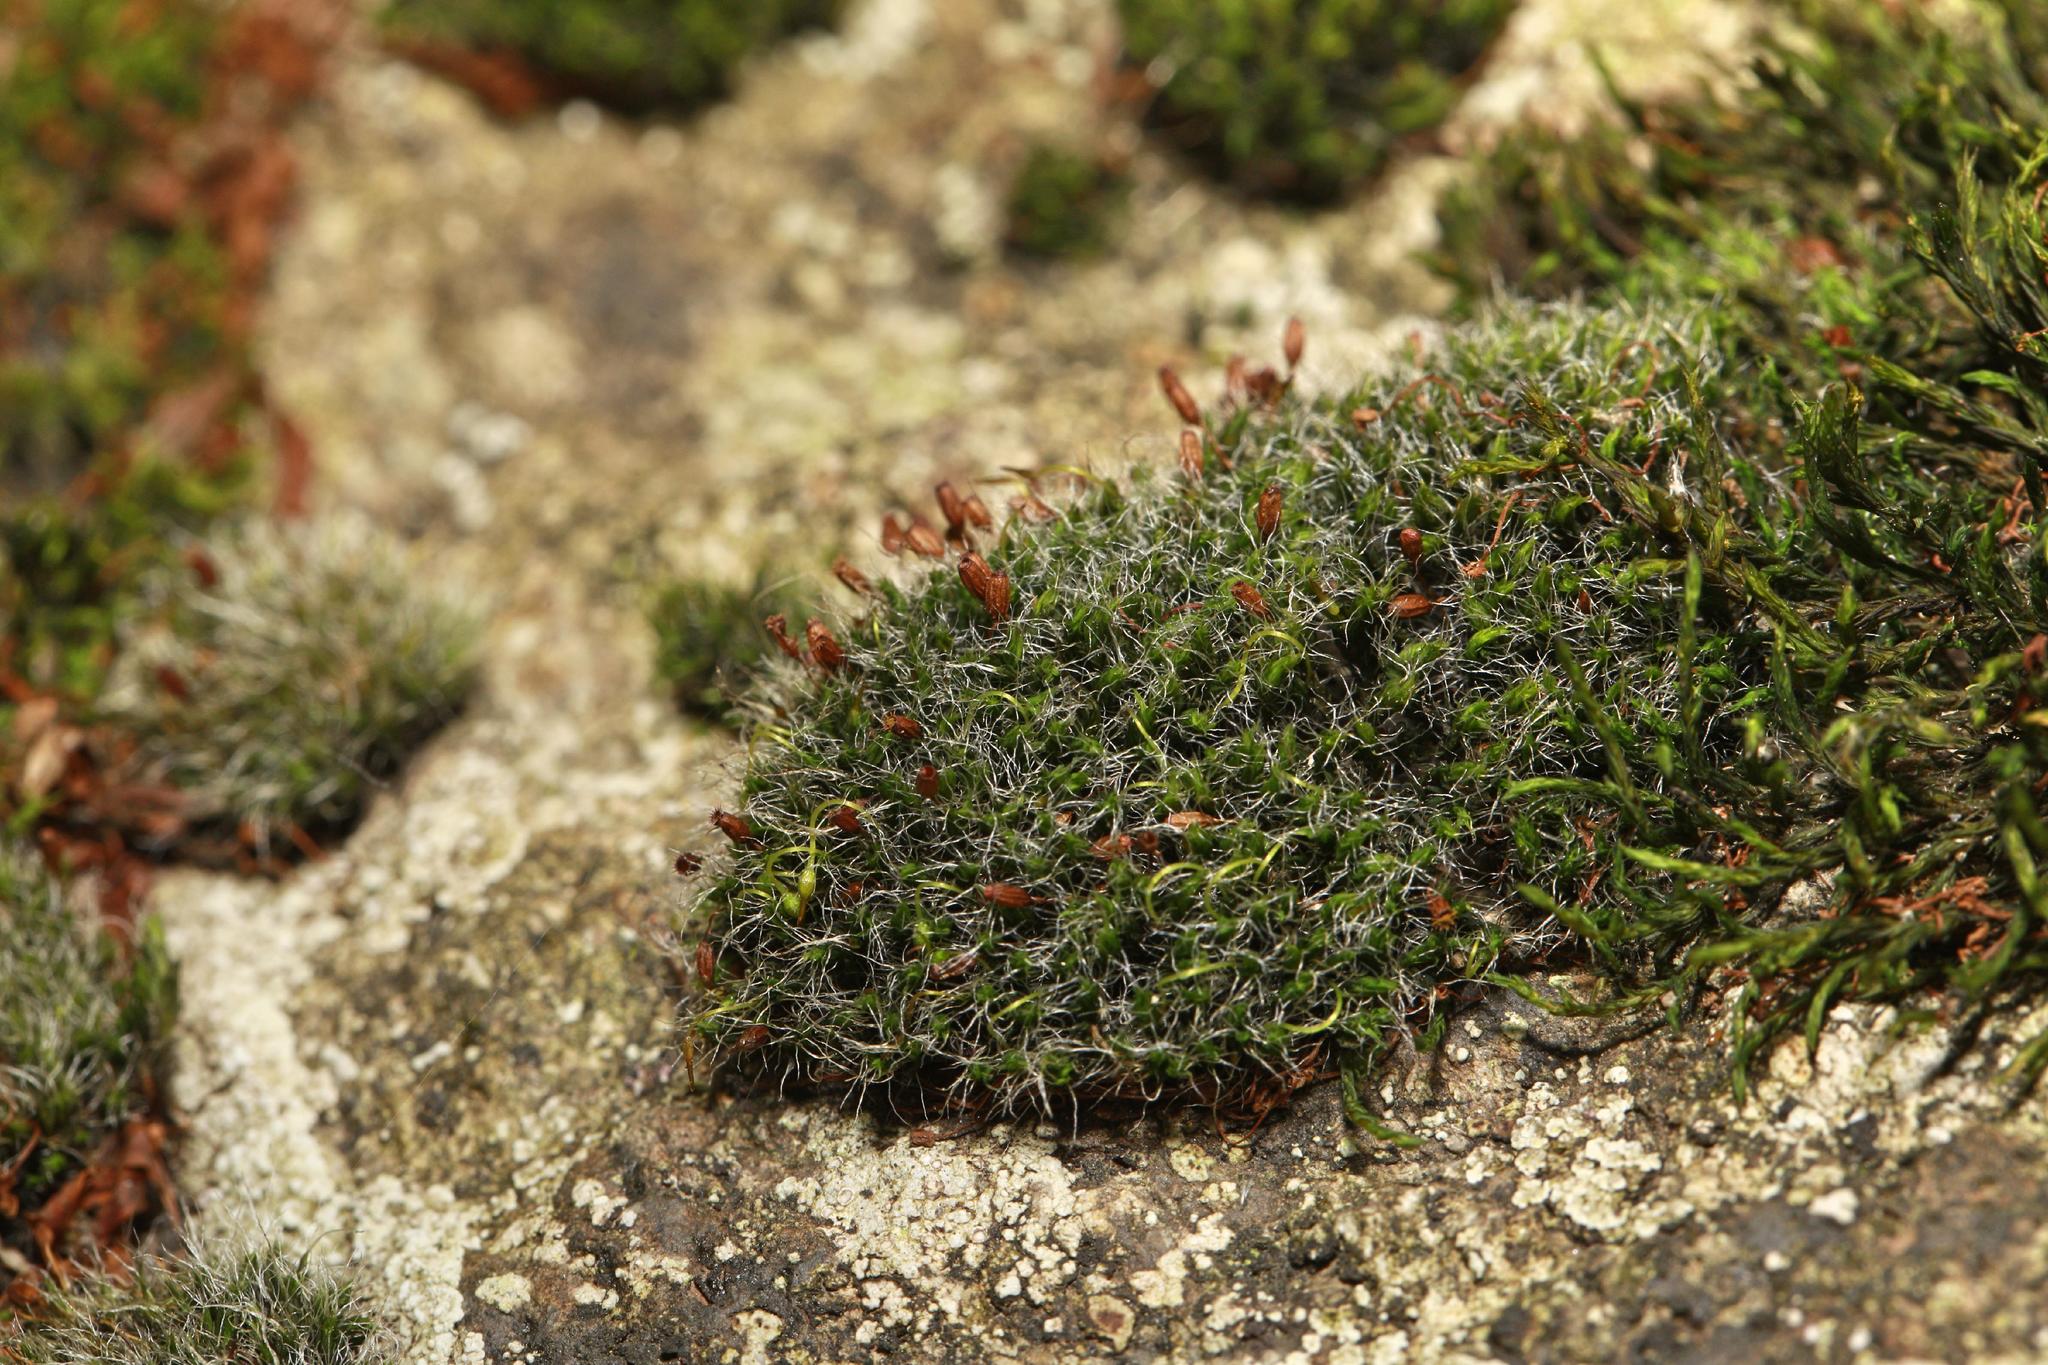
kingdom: Plantae
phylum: Bryophyta
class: Bryopsida
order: Grimmiales
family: Grimmiaceae
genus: Grimmia
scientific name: Grimmia pulvinata
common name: Grey-cushioned grimmia
